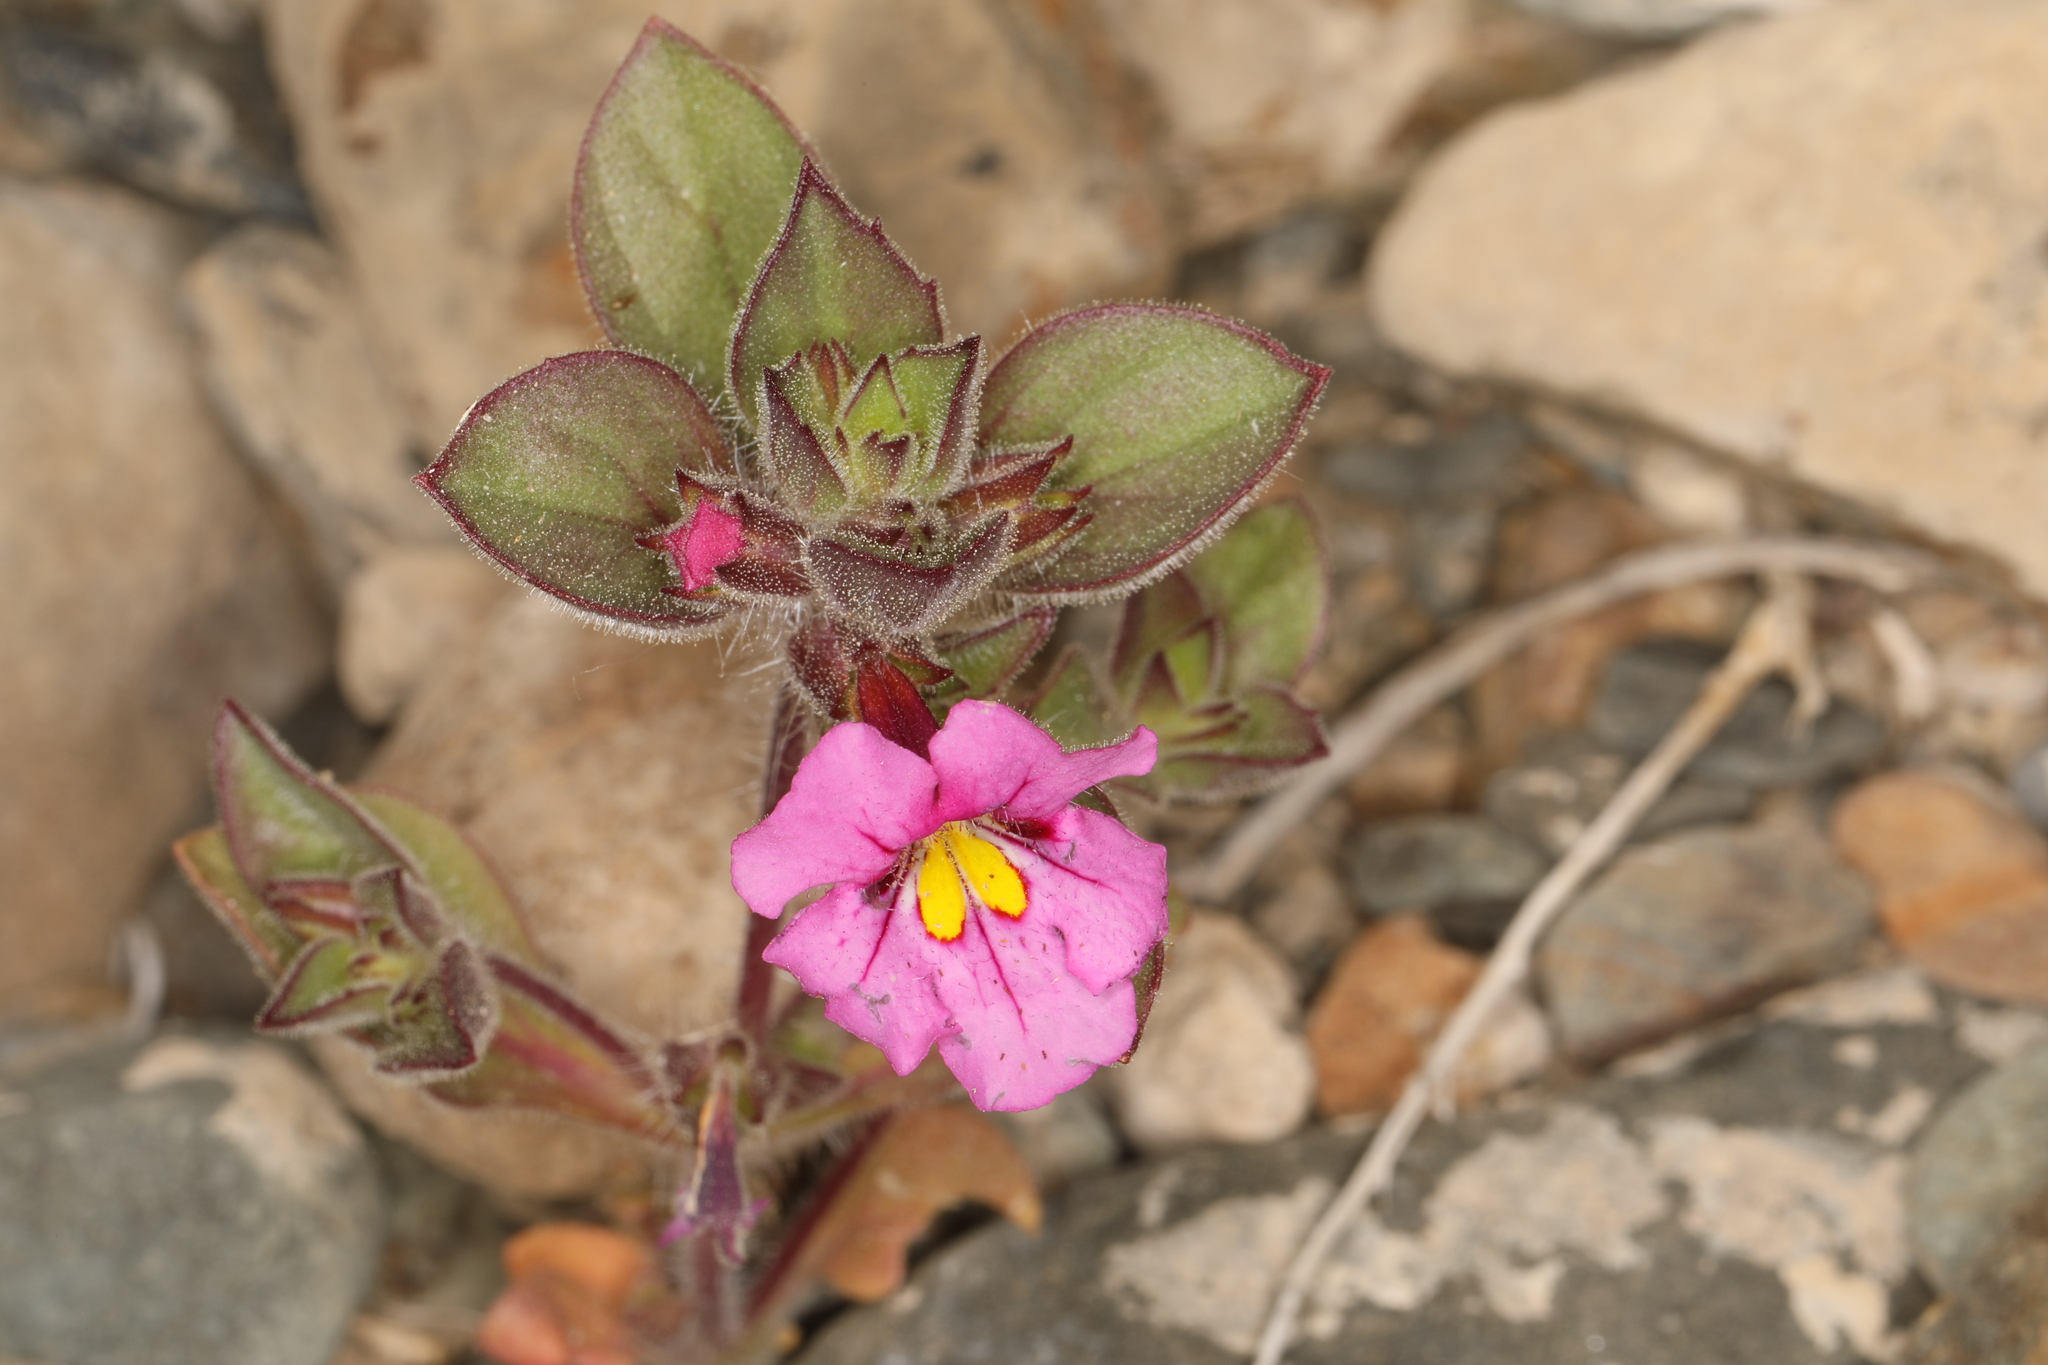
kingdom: Plantae
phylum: Tracheophyta
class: Magnoliopsida
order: Lamiales
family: Phrymaceae
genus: Diplacus
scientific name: Diplacus bigelovii
